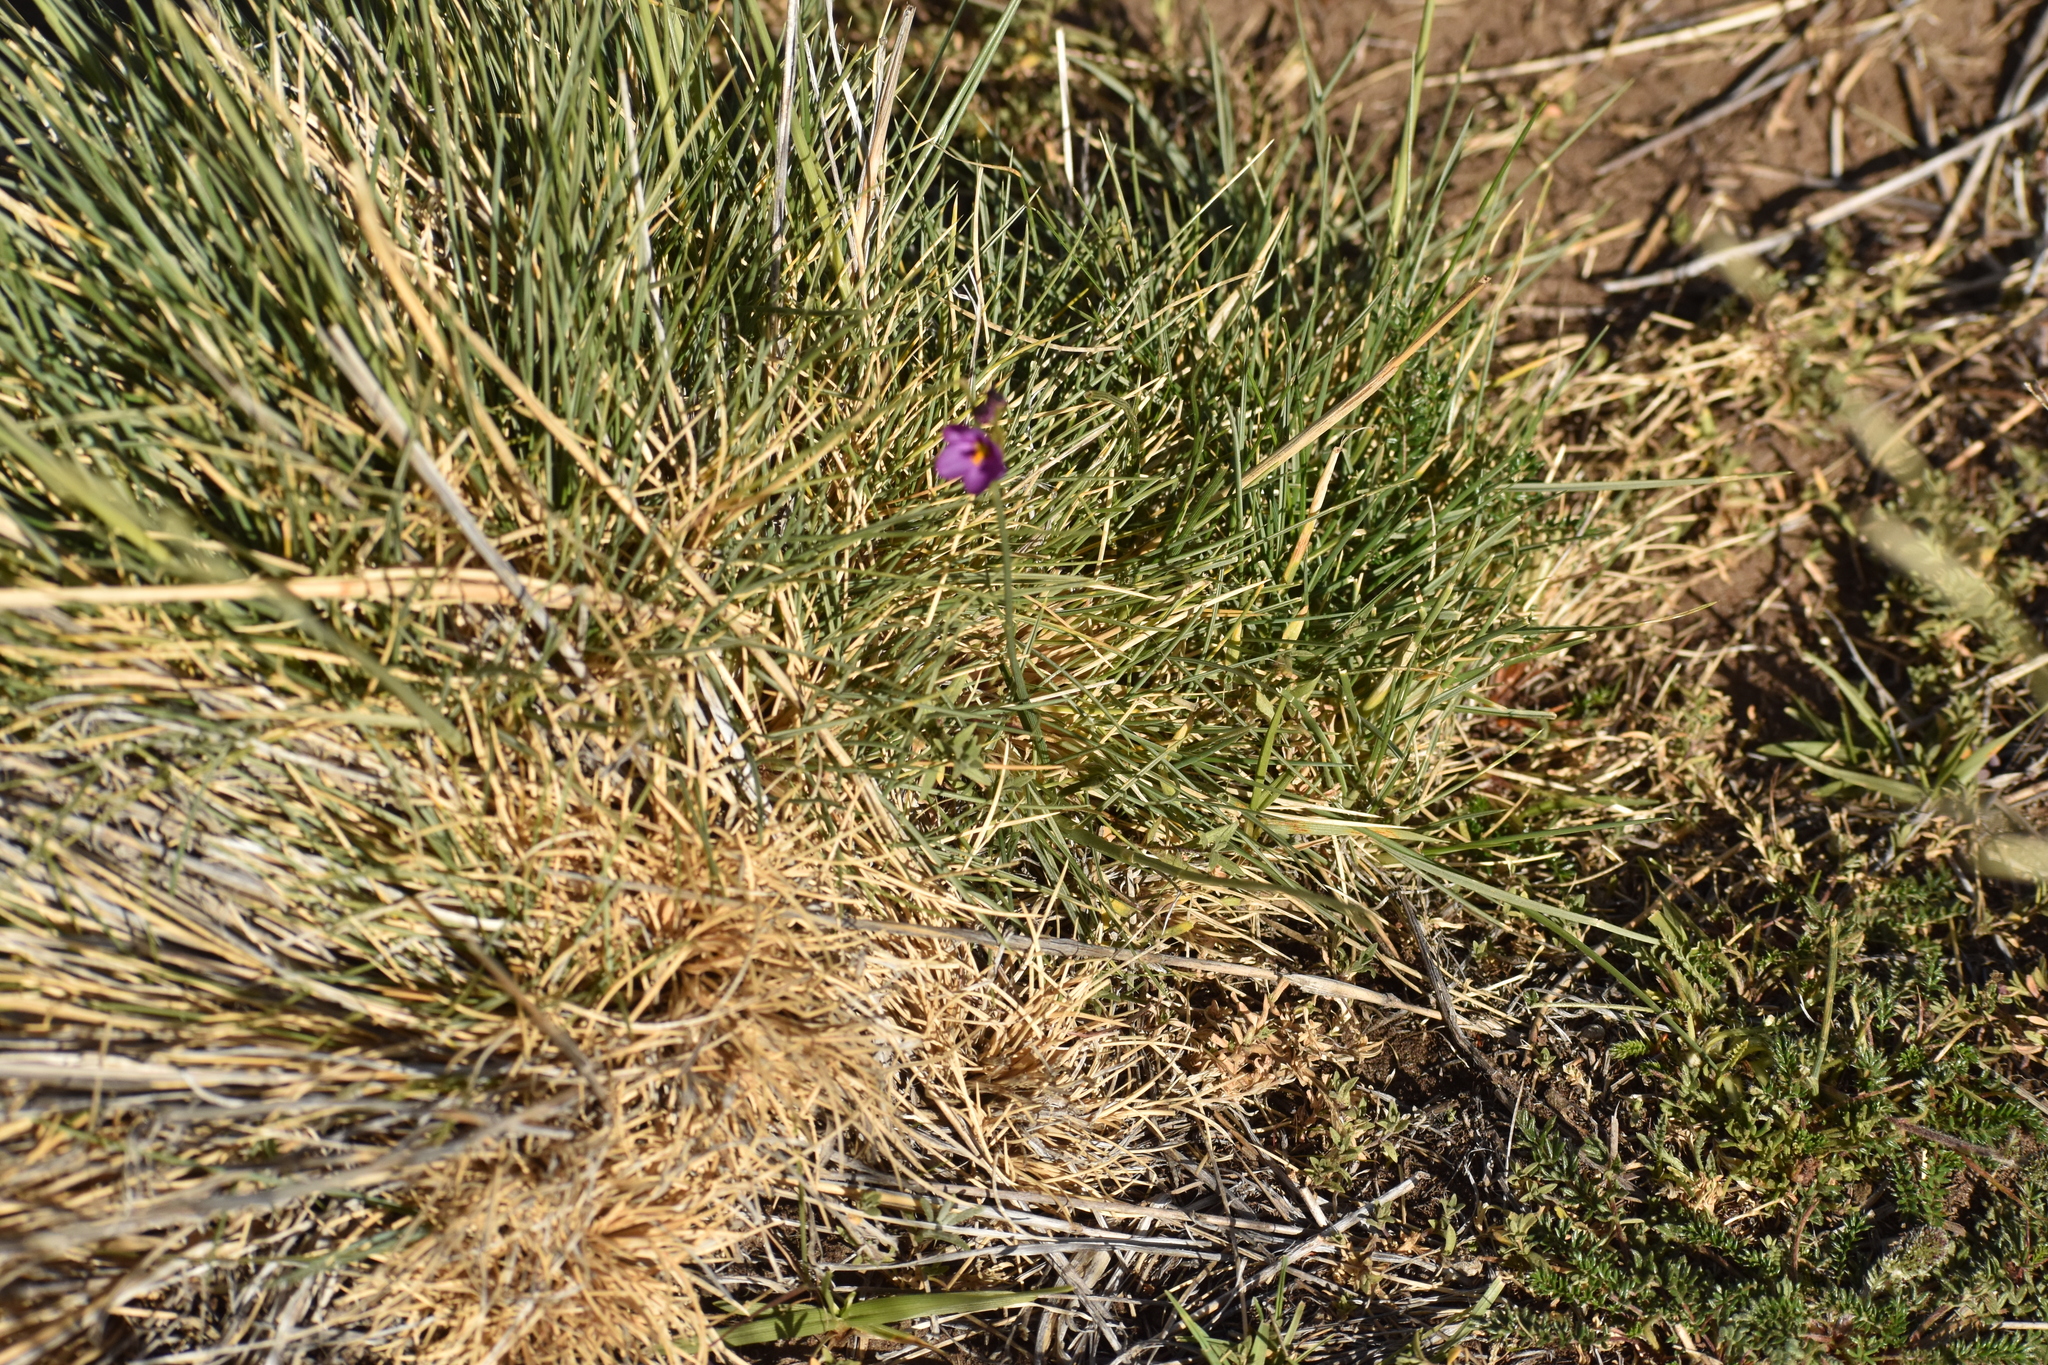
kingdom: Plantae
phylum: Tracheophyta
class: Liliopsida
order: Asparagales
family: Iridaceae
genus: Olsynium
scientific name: Olsynium junceum
